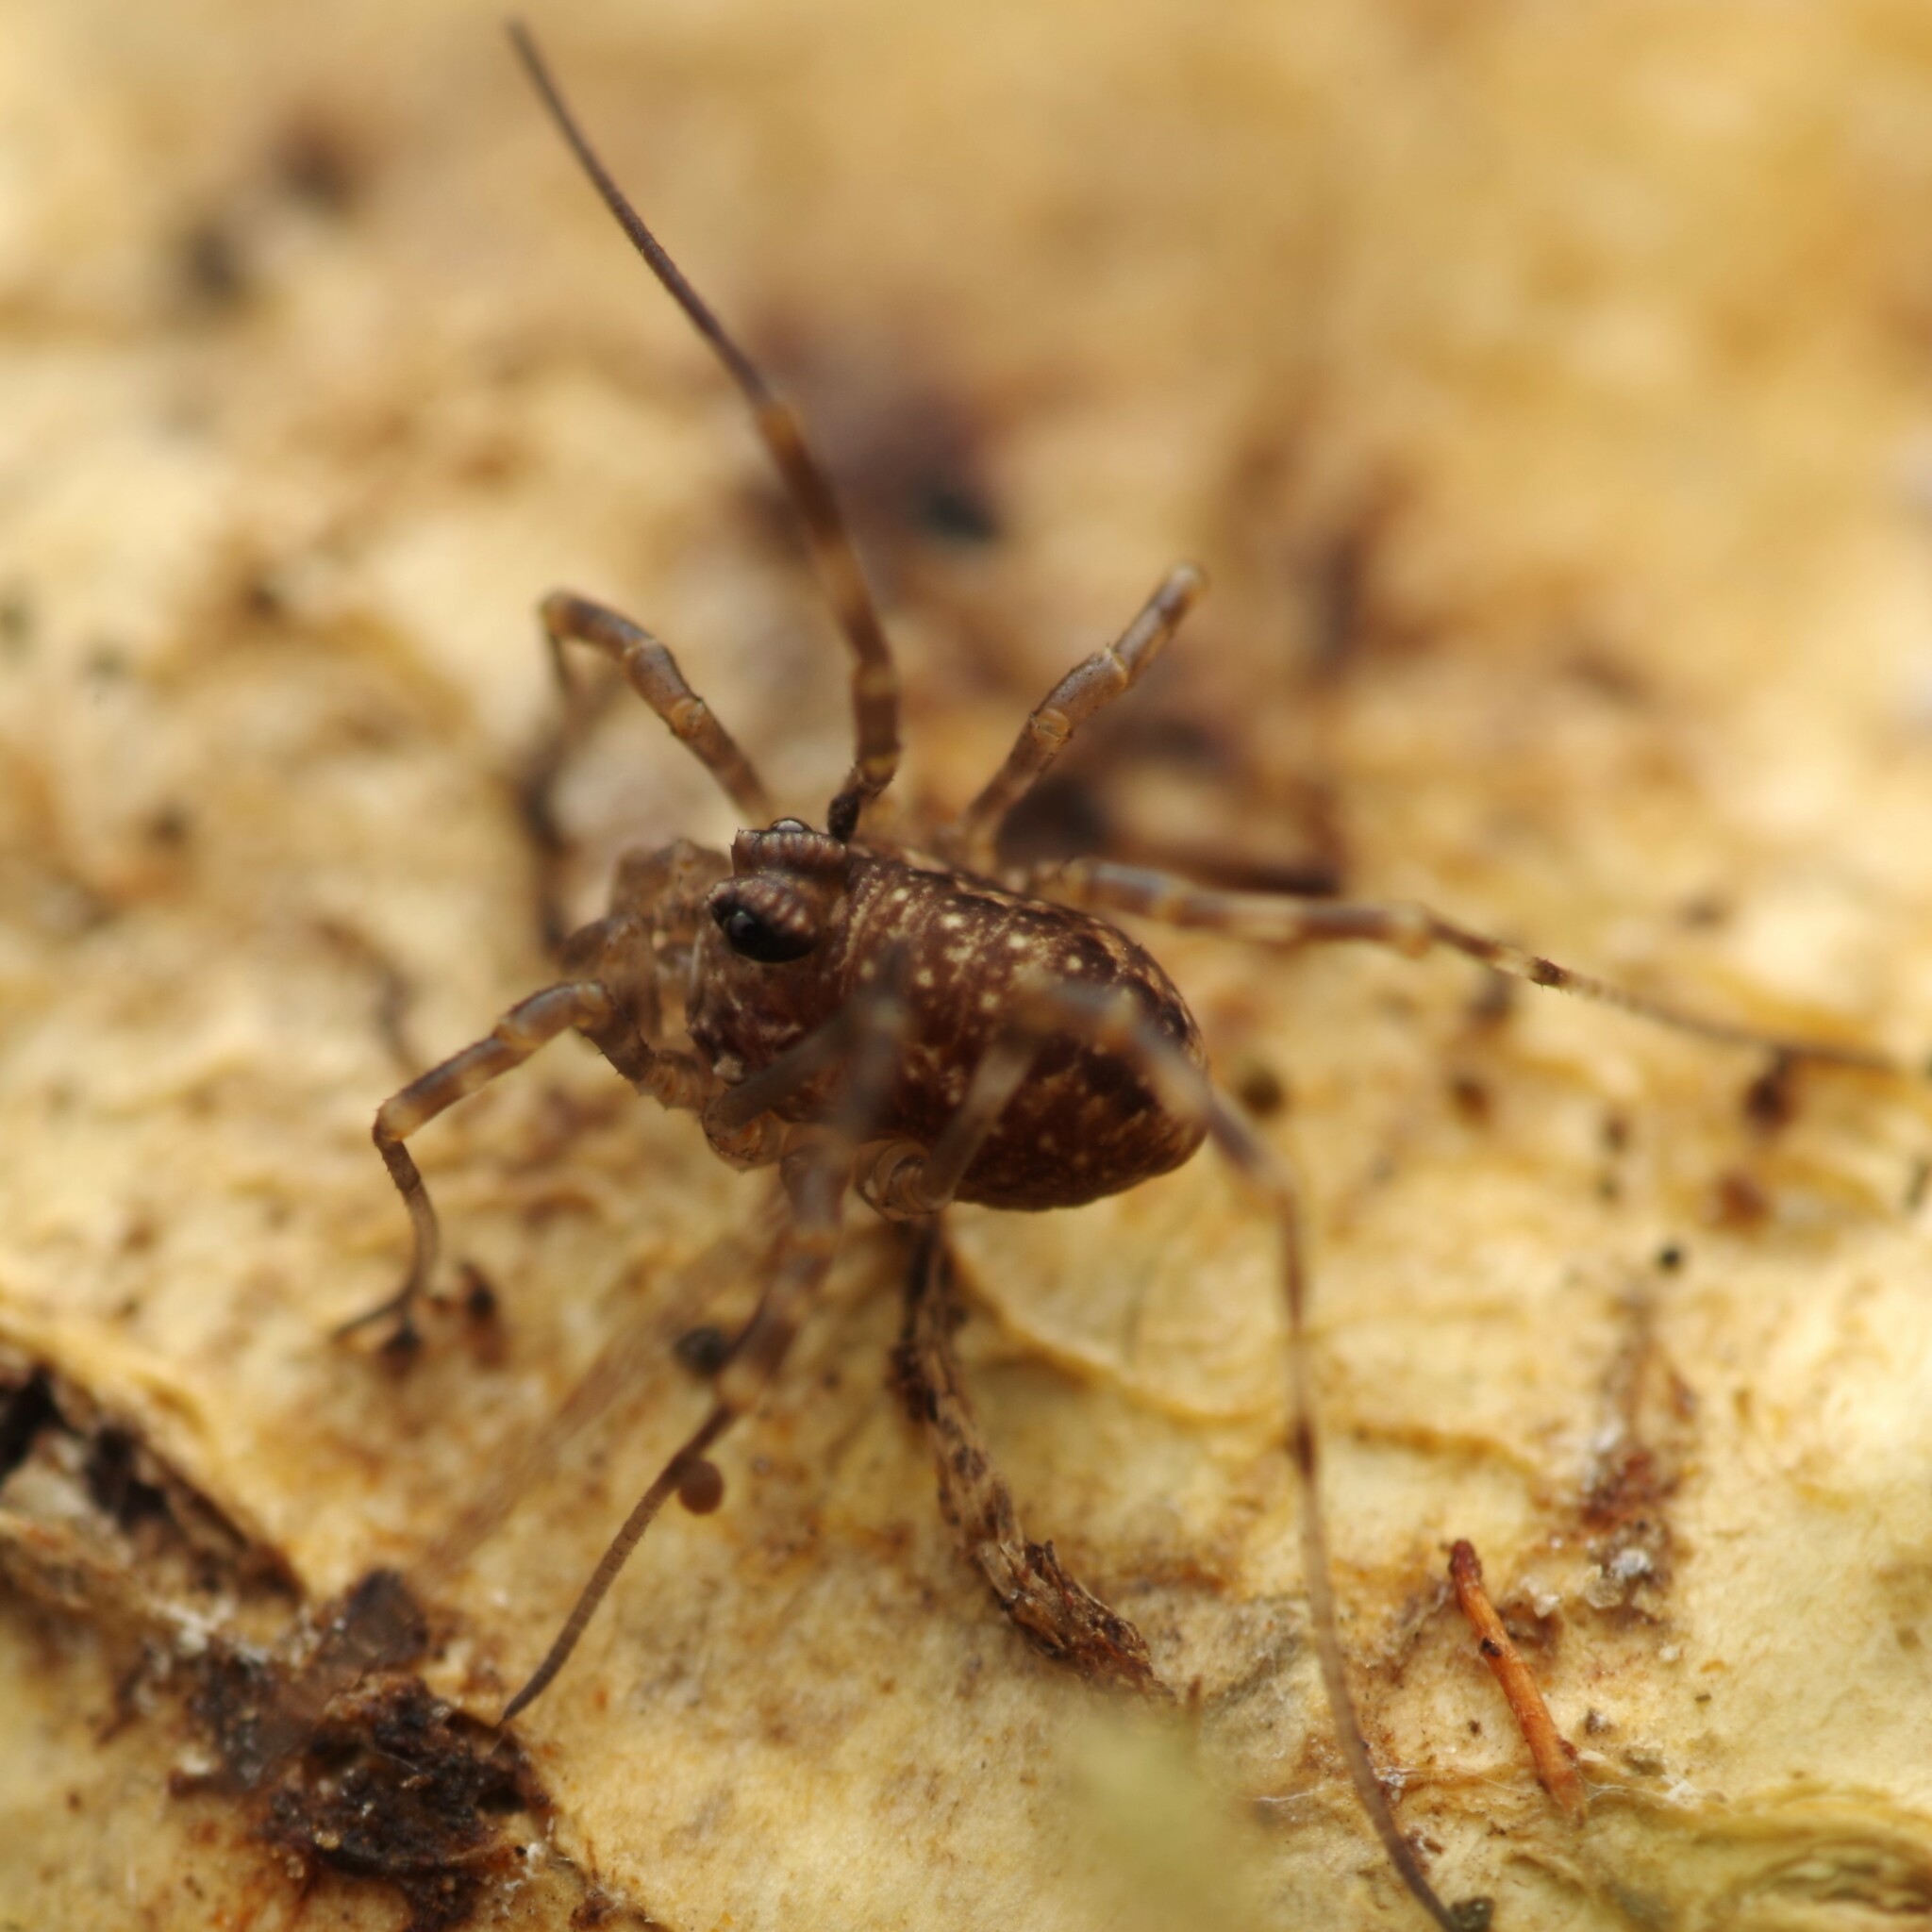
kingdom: Animalia
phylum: Arthropoda
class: Arachnida
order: Opiliones
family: Phalangiidae
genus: Rilaena
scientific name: Rilaena triangularis
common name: Spring harvestman
